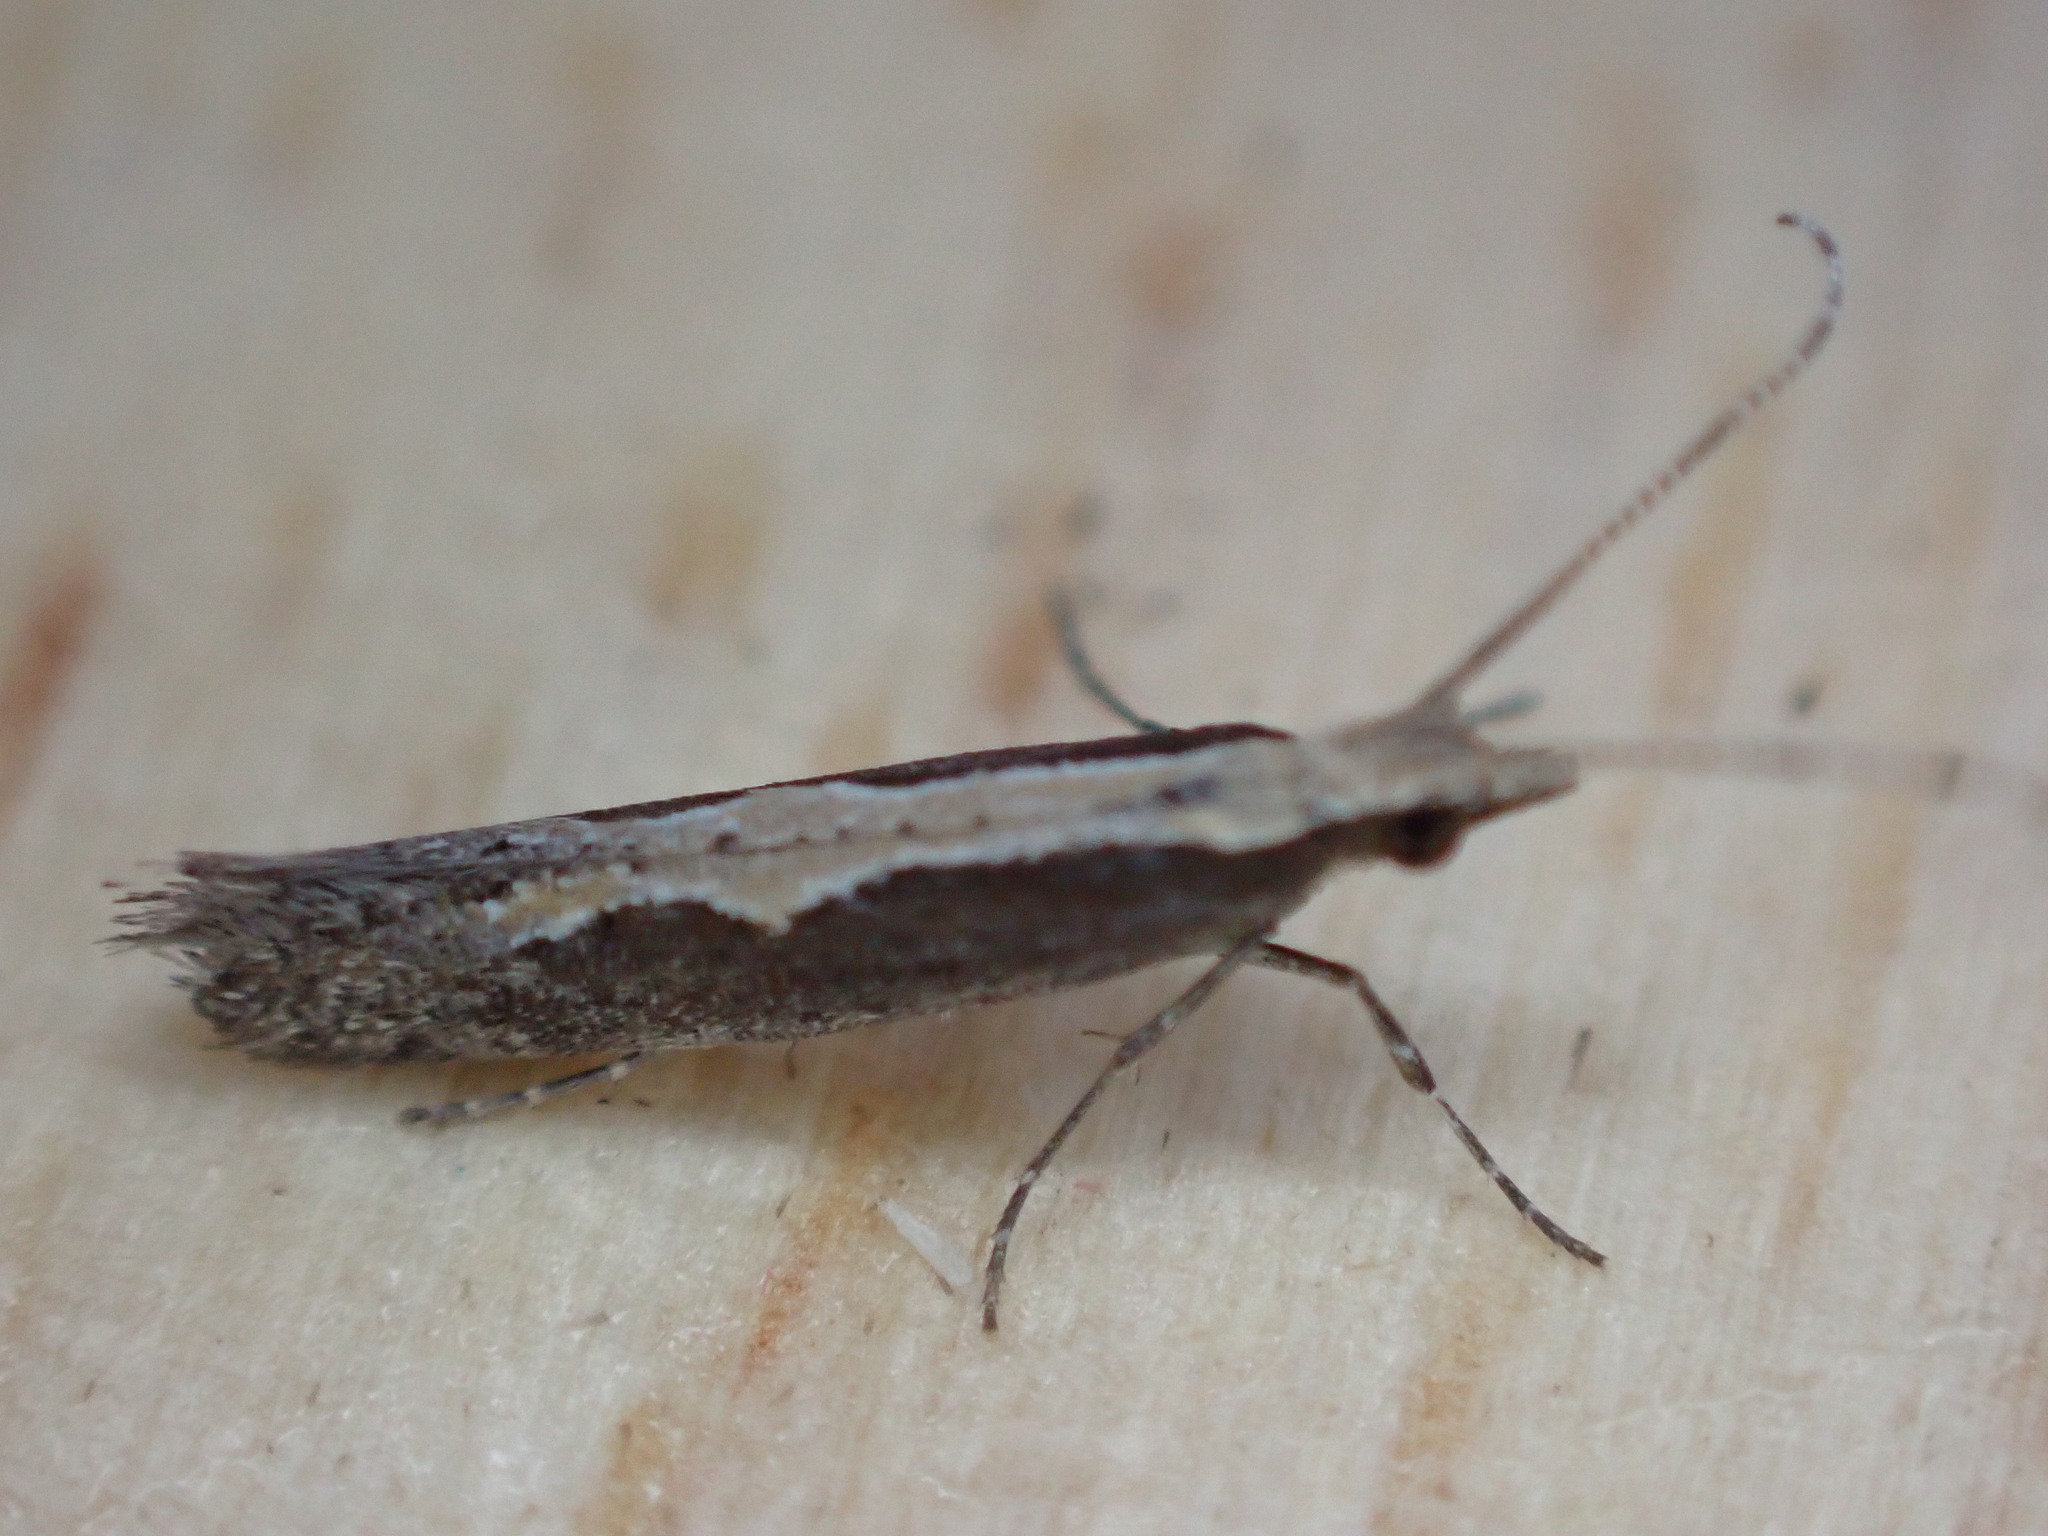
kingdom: Animalia
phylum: Arthropoda
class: Insecta
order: Lepidoptera
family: Plutellidae
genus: Plutella
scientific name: Plutella xylostella
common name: Diamond-back moth
